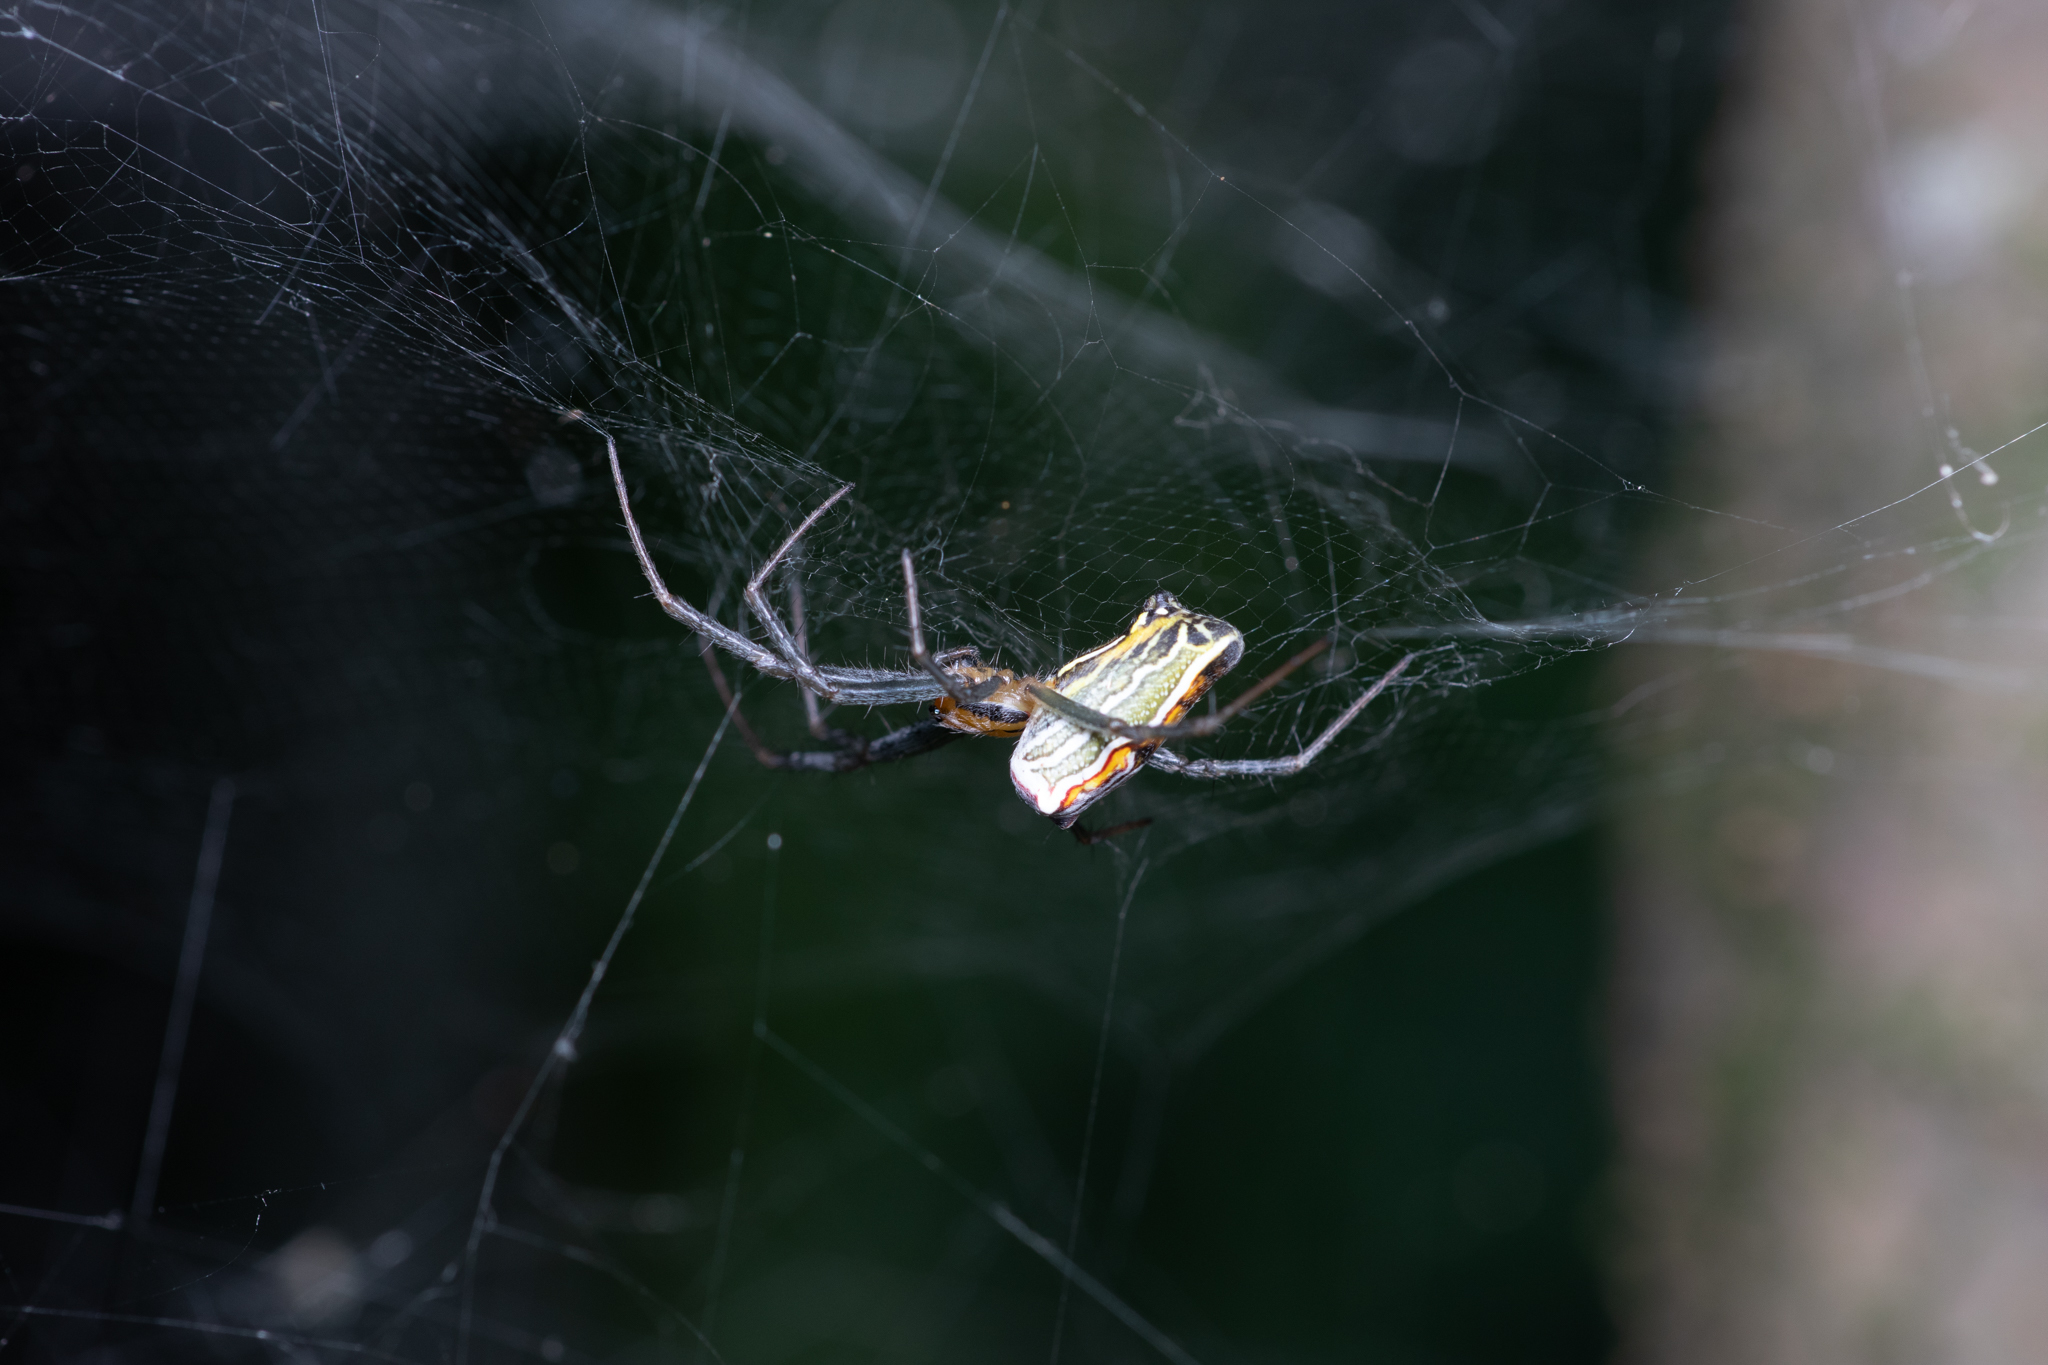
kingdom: Animalia
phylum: Arthropoda
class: Arachnida
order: Araneae
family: Araneidae
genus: Mecynogea
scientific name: Mecynogea lemniscata
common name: Orb weavers
